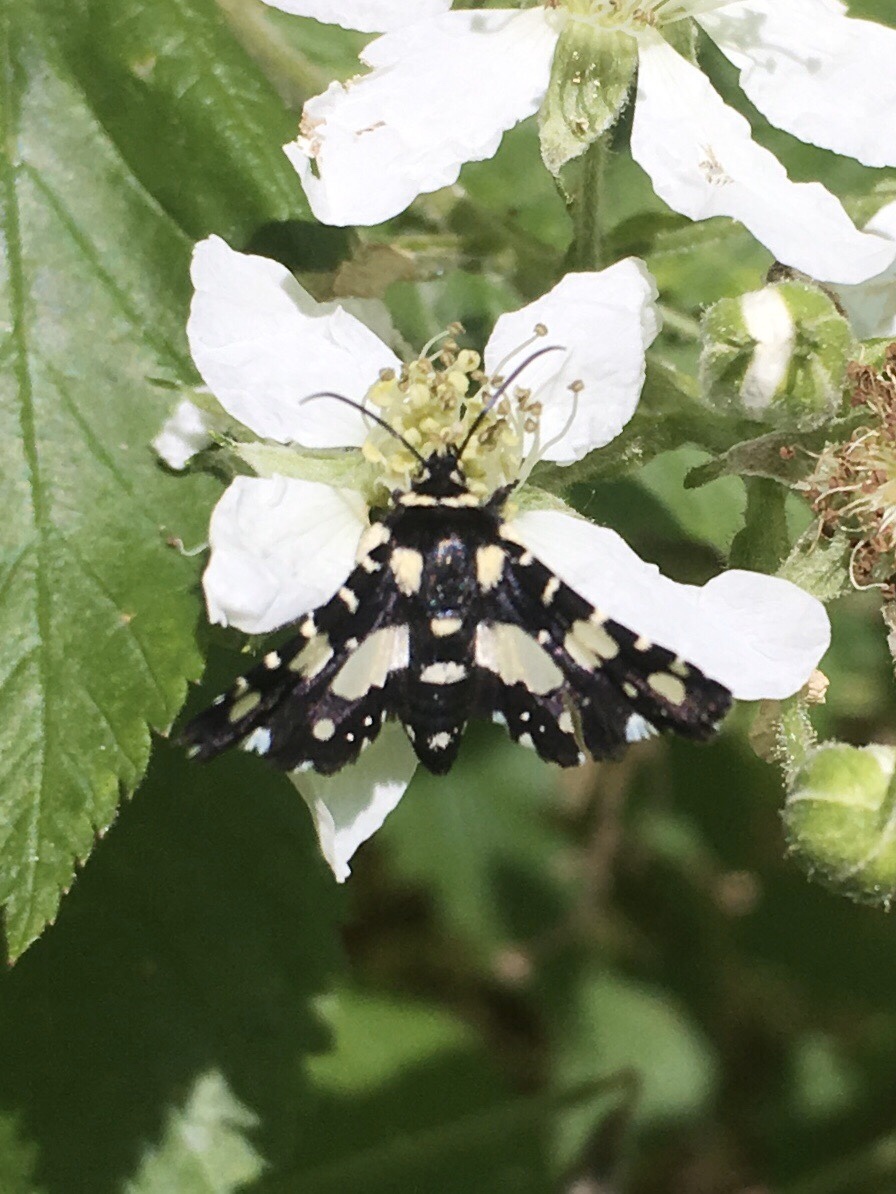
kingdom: Animalia
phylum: Arthropoda
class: Insecta
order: Lepidoptera
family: Thyrididae
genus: Pseudothyris
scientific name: Pseudothyris sepulchralis
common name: Mournful thyris moth
